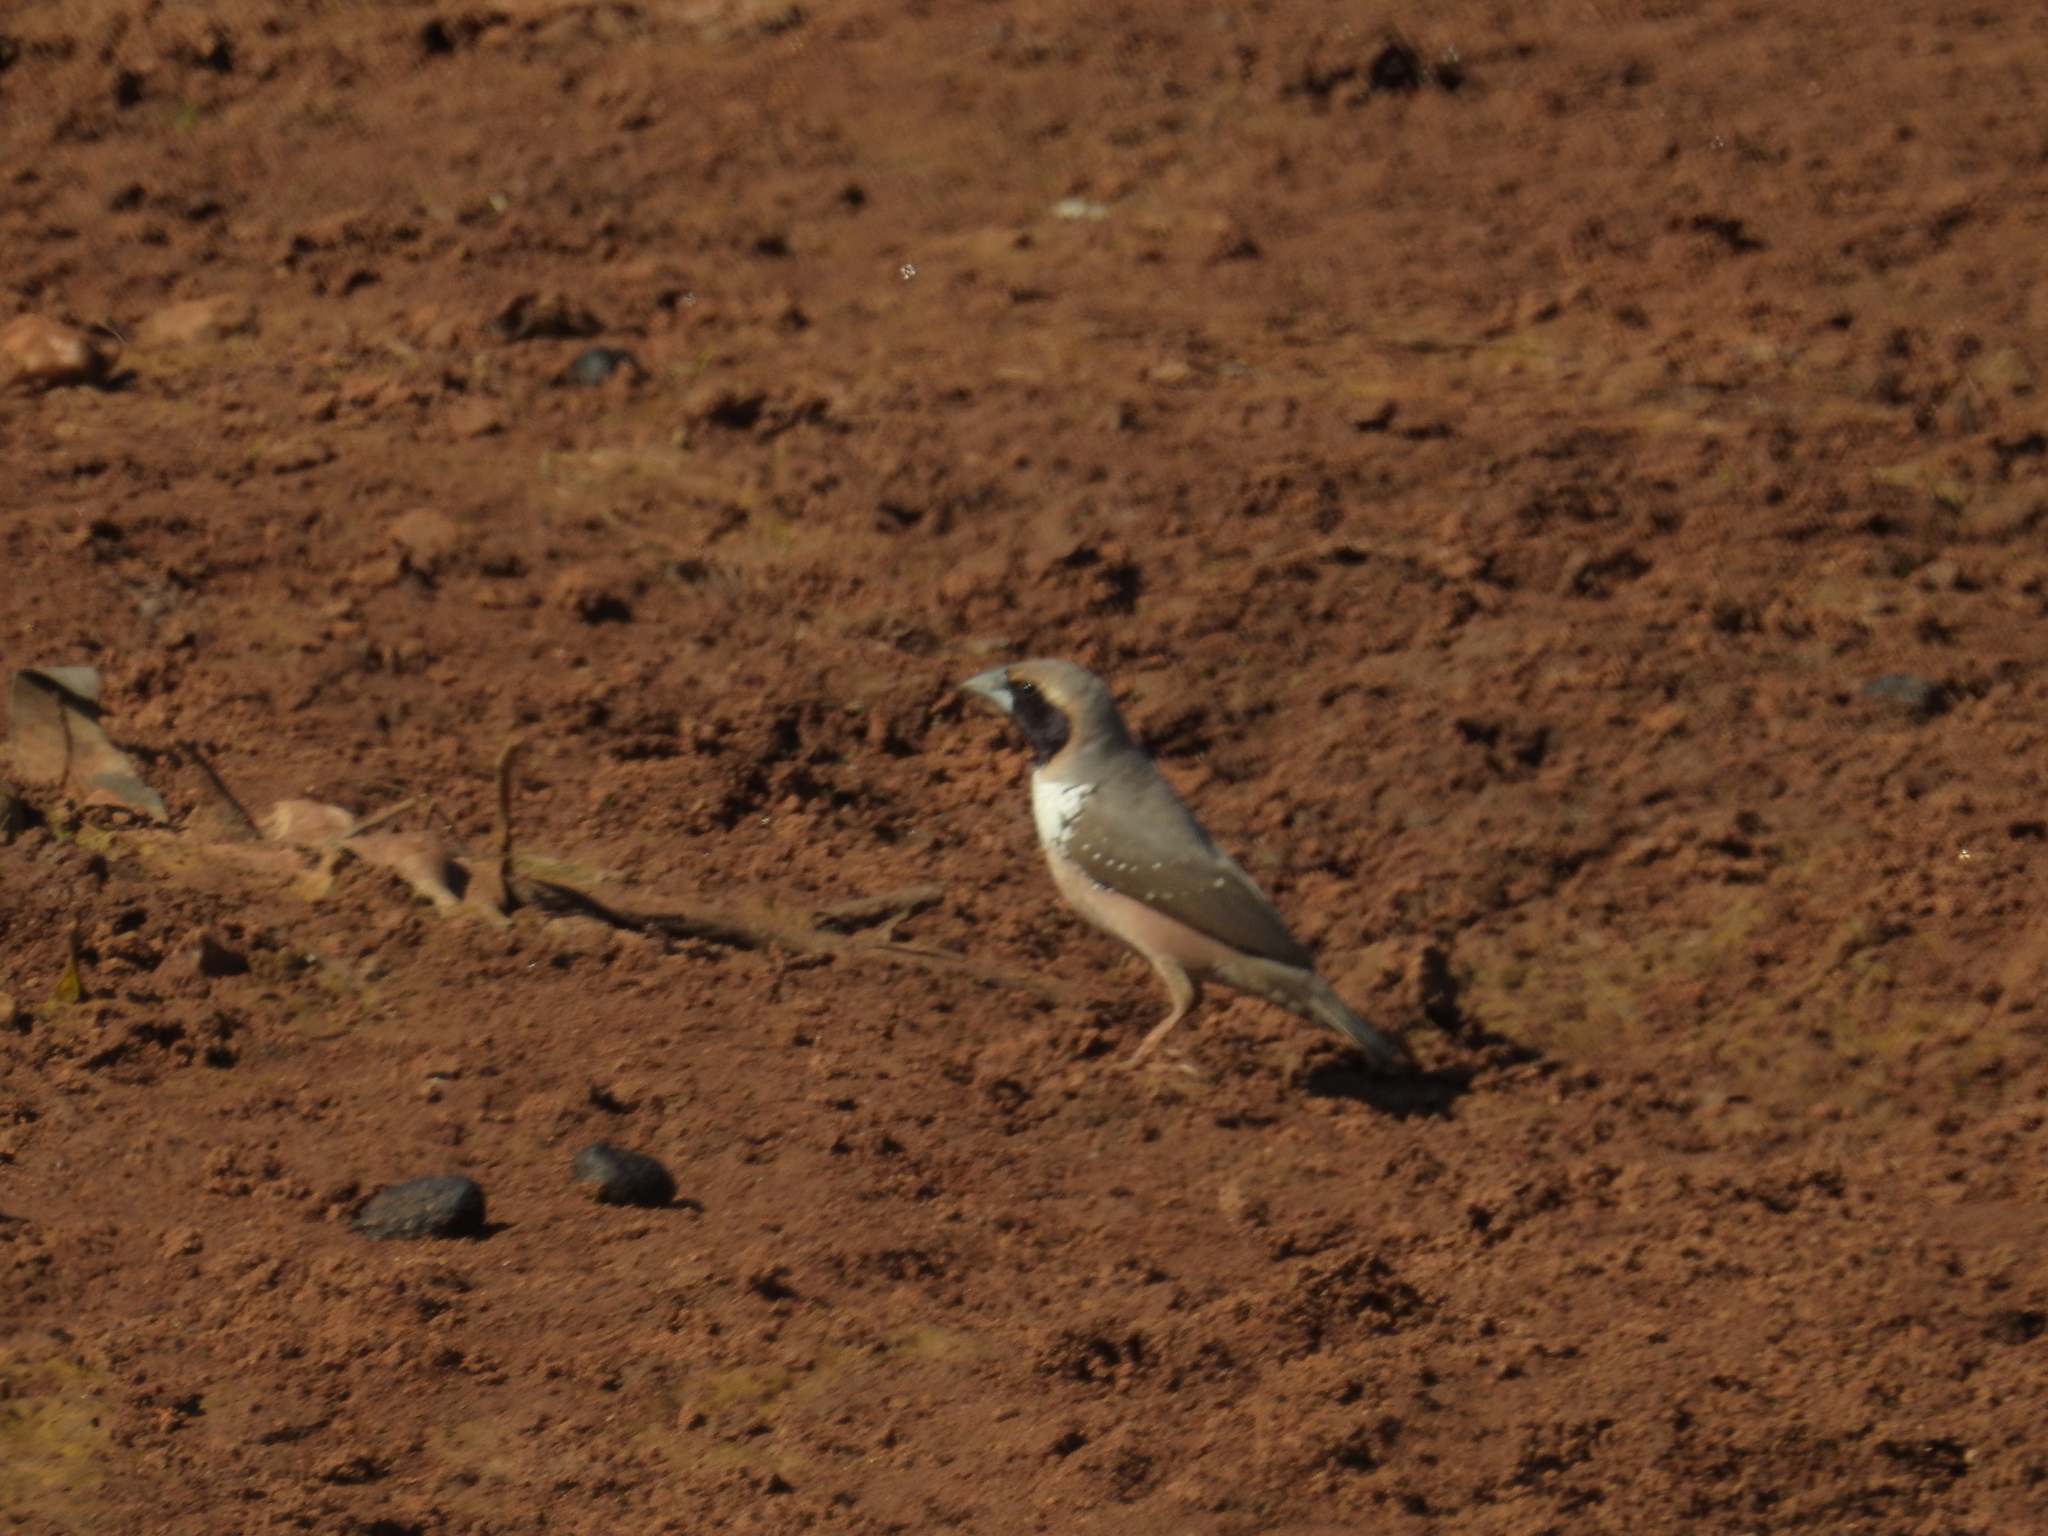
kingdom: Animalia
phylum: Chordata
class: Aves
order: Passeriformes
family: Estrildidae
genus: Heteromunia
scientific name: Heteromunia pectoralis
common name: Pictorella munia
